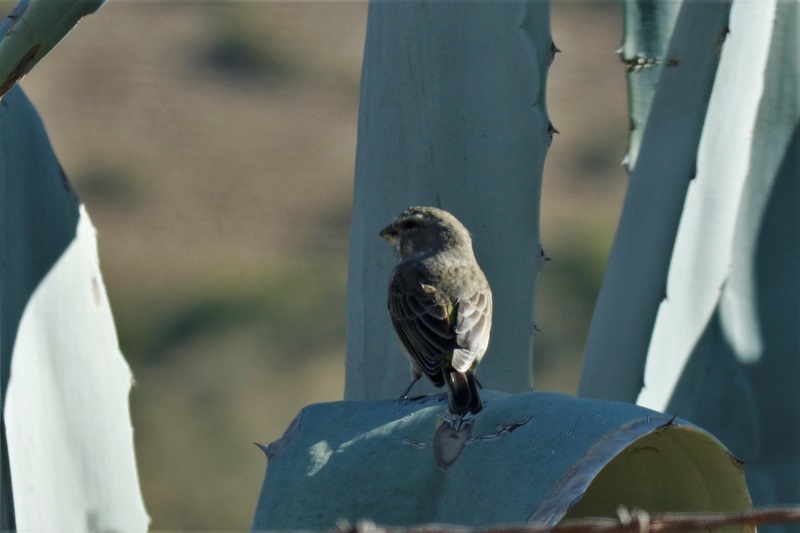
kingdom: Animalia
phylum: Chordata
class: Aves
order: Passeriformes
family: Fringillidae
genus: Crithagra
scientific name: Crithagra albogularis
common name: White-throated canary
